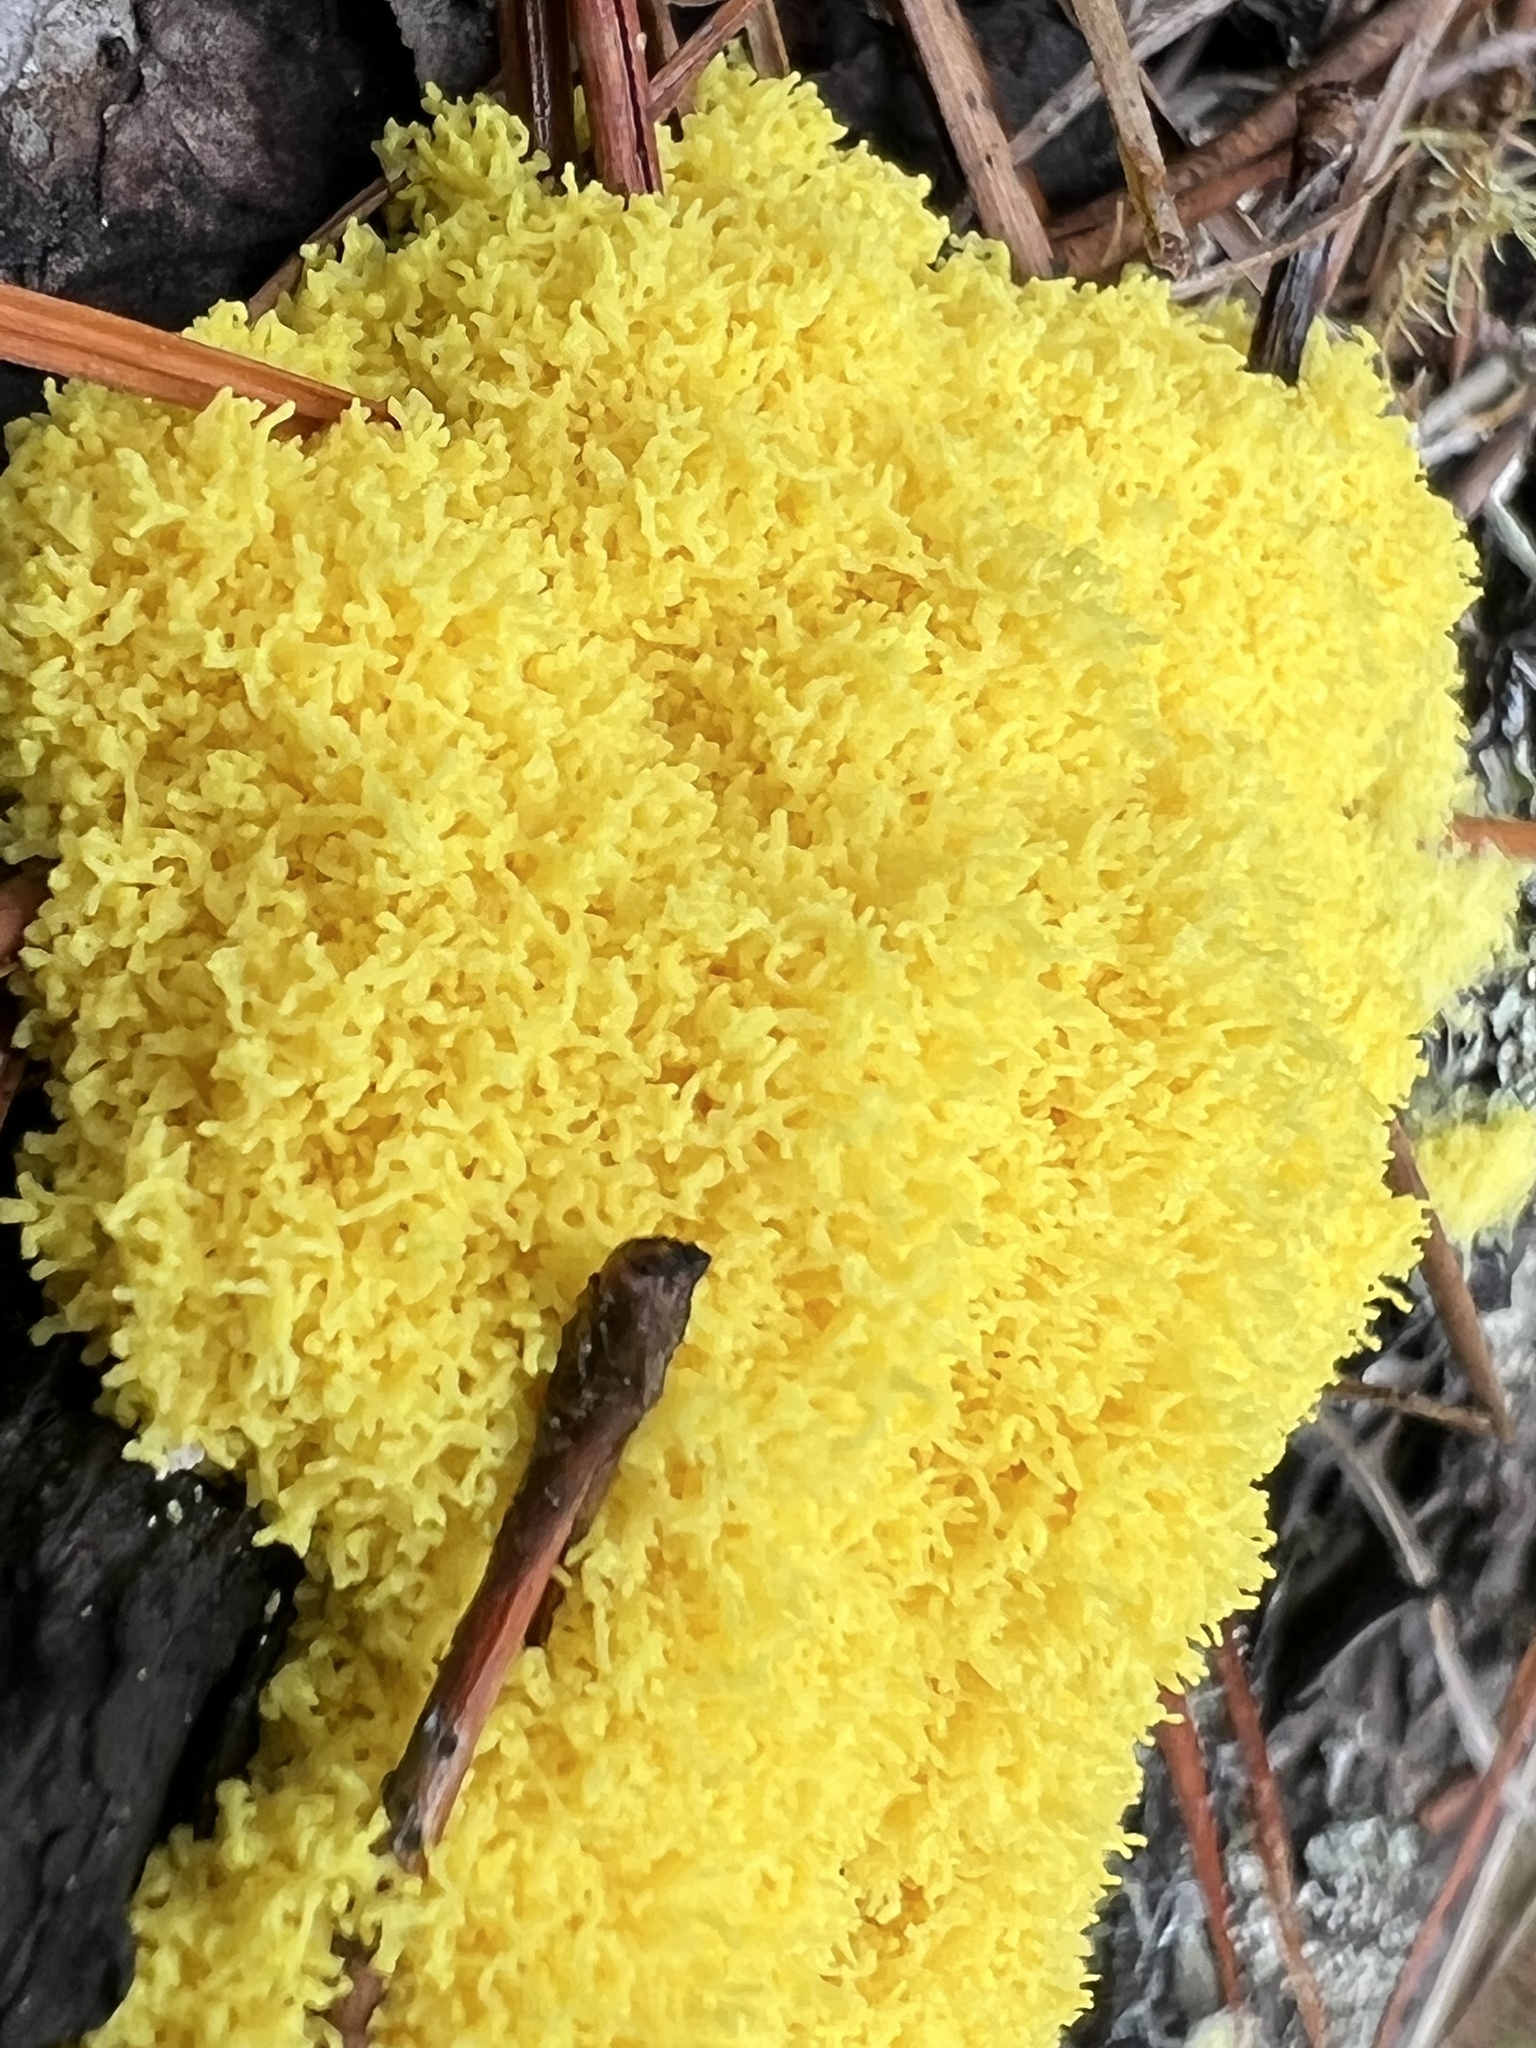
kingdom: Protozoa
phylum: Mycetozoa
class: Myxomycetes
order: Physarales
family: Physaraceae
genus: Fuligo
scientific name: Fuligo septica
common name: Dog vomit slime mold
